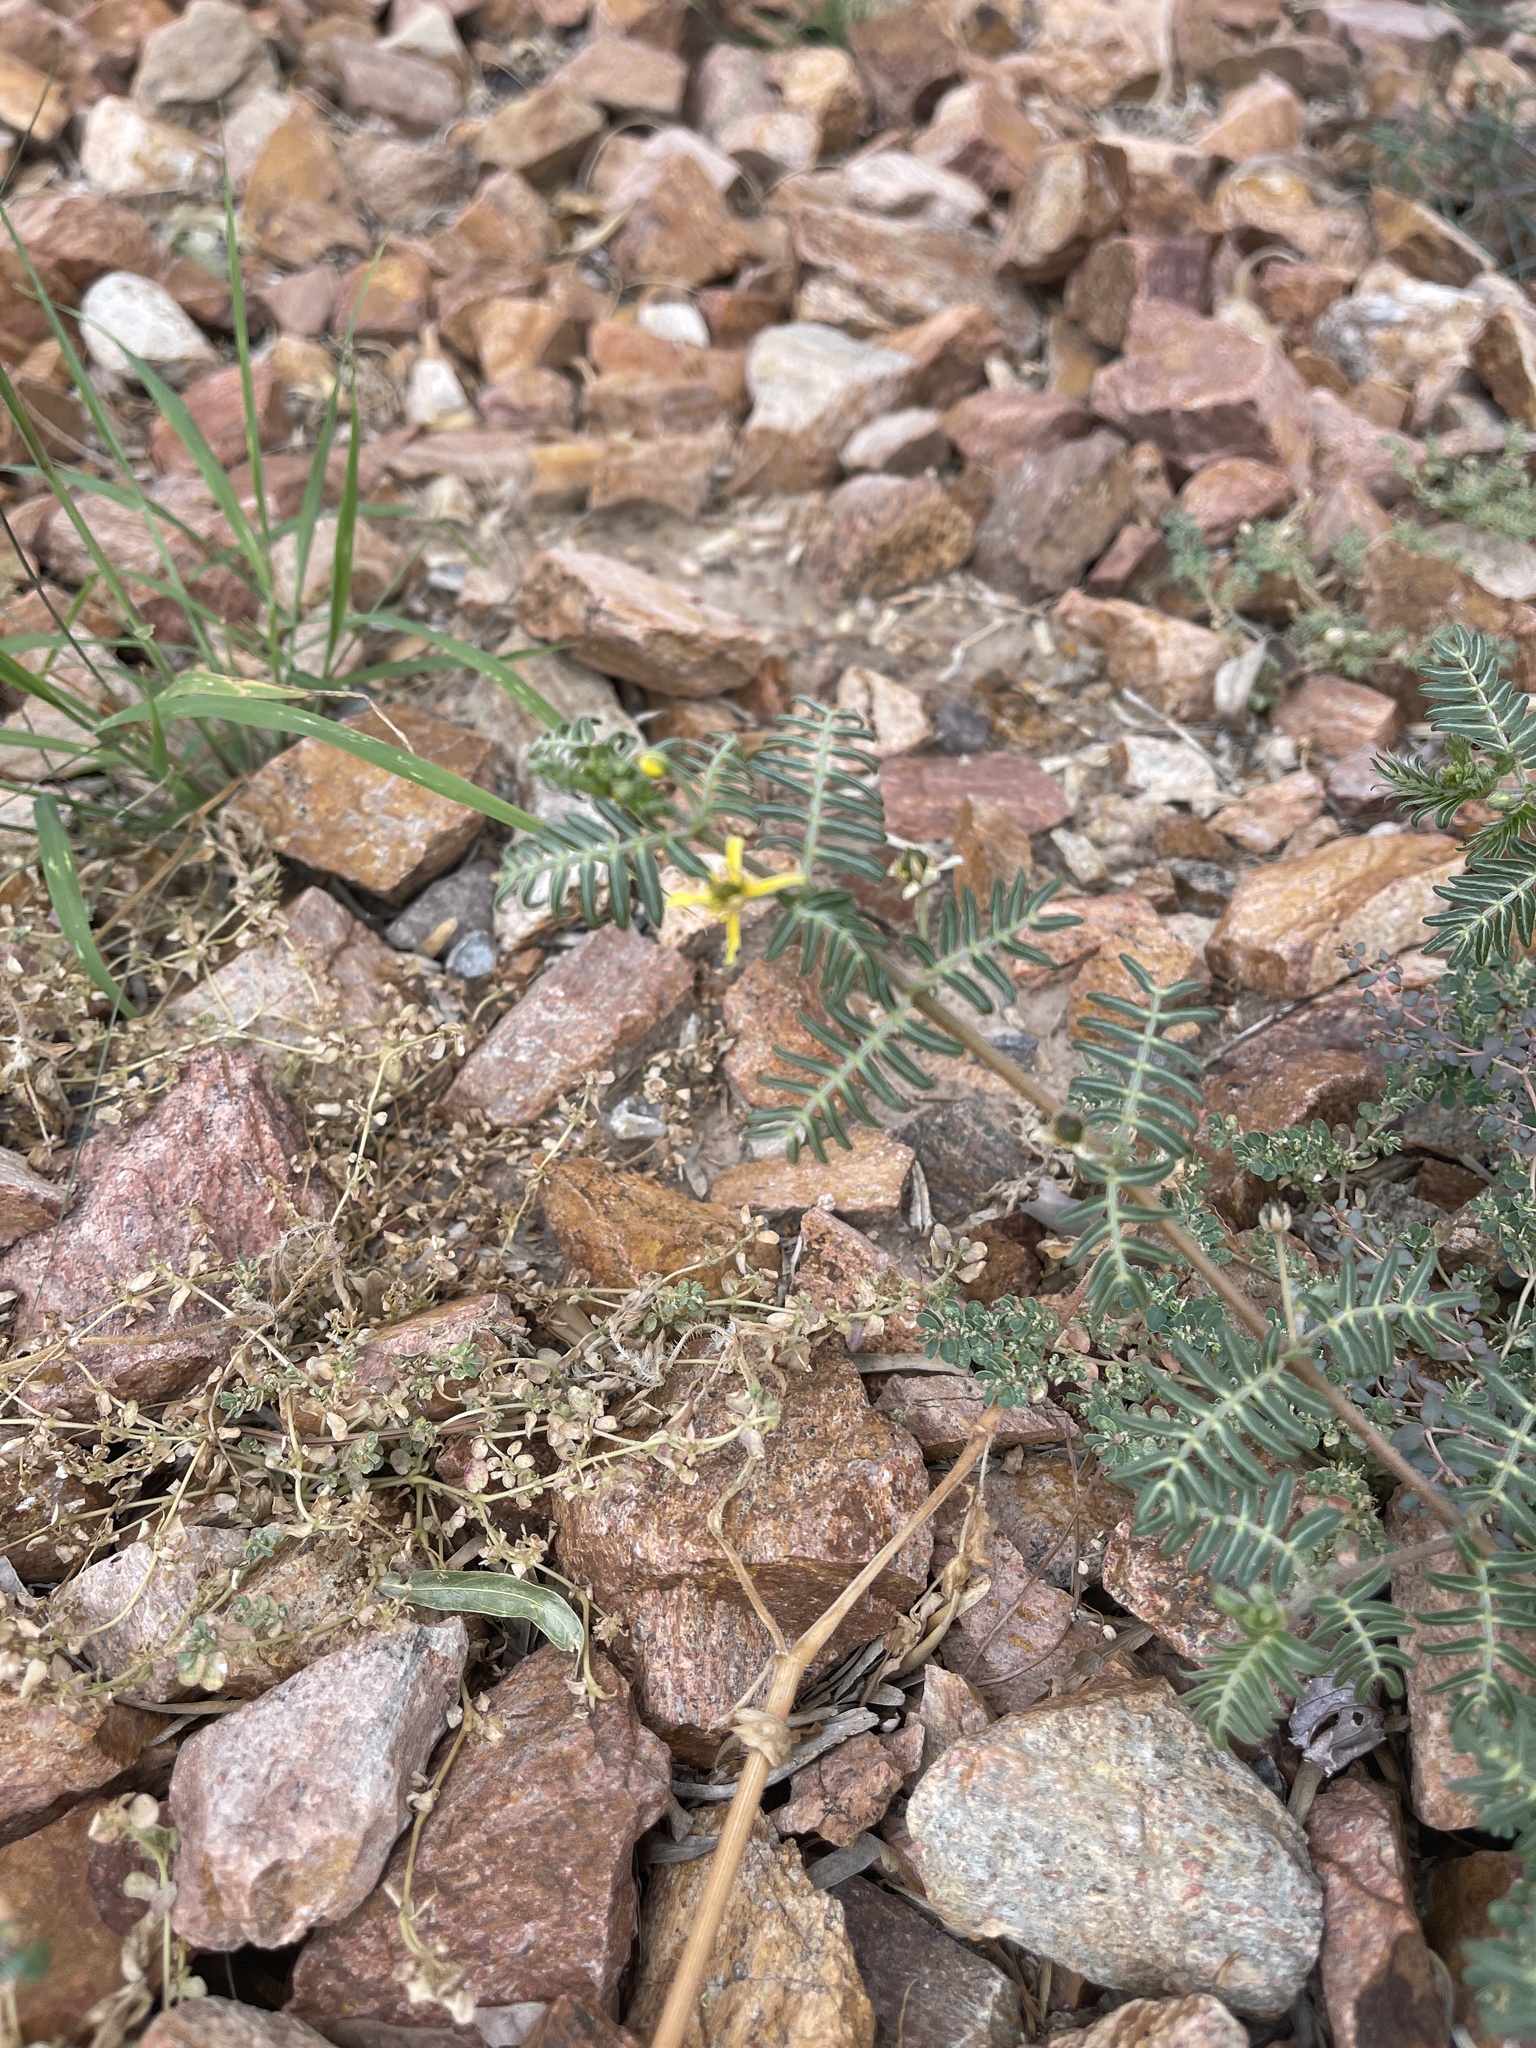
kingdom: Plantae
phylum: Tracheophyta
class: Magnoliopsida
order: Zygophyllales
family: Zygophyllaceae
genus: Tribulus
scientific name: Tribulus terrestris
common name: Puncturevine
